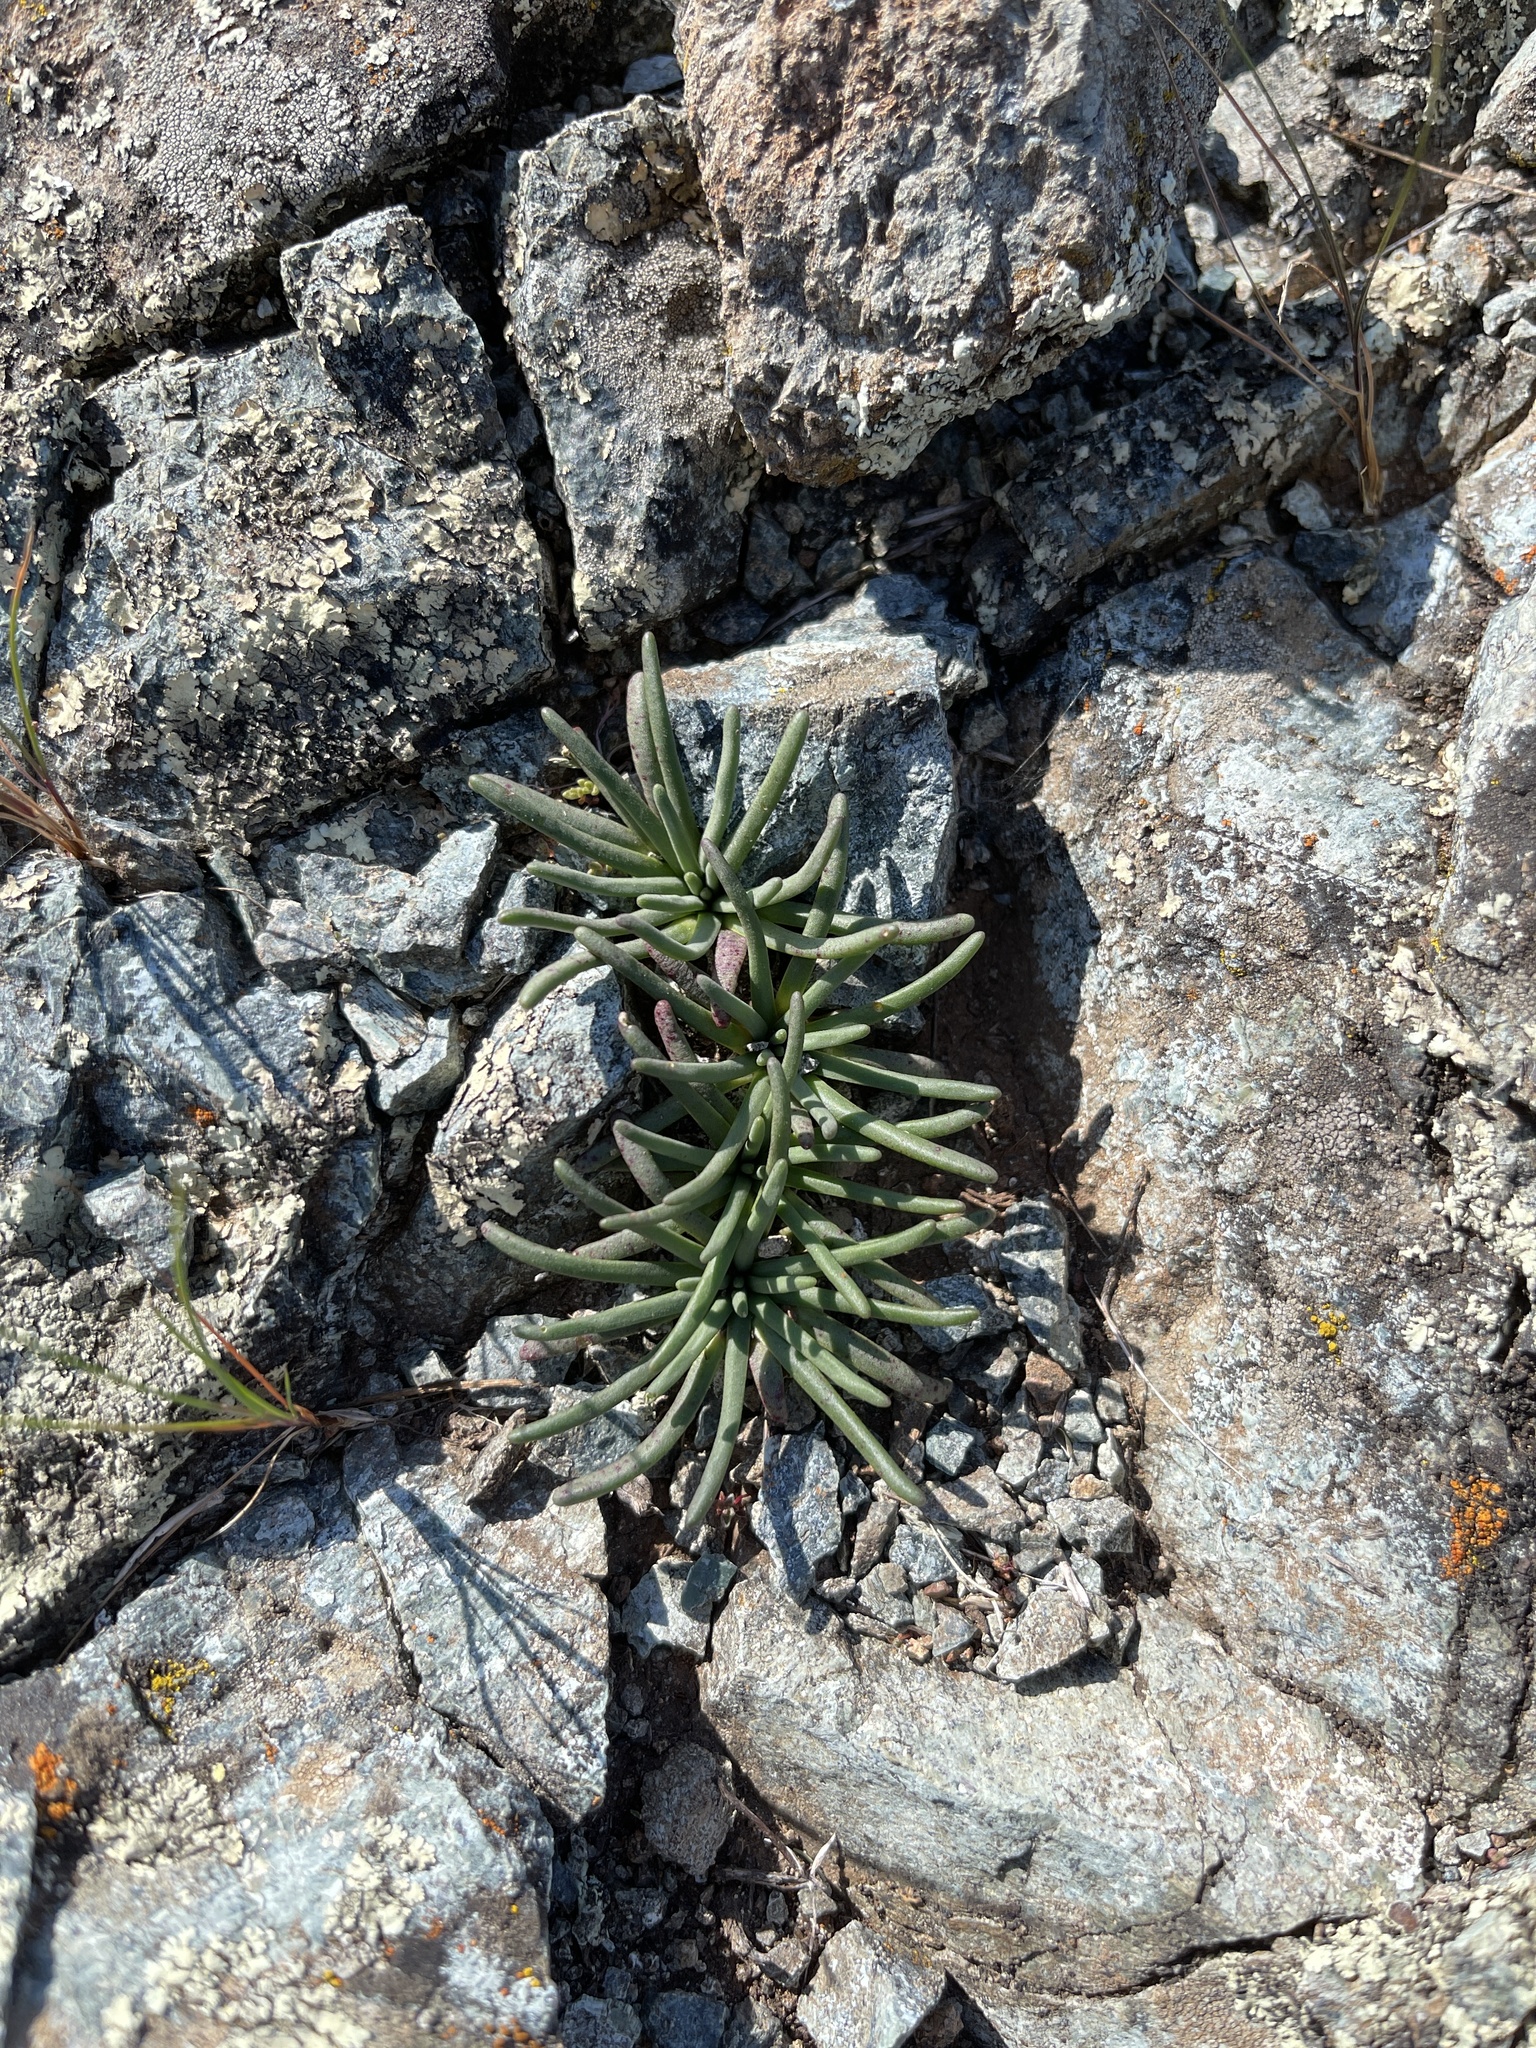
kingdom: Plantae
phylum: Tracheophyta
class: Magnoliopsida
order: Caryophyllales
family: Montiaceae
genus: Lewisia
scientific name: Lewisia rediviva
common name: Bitter-root
